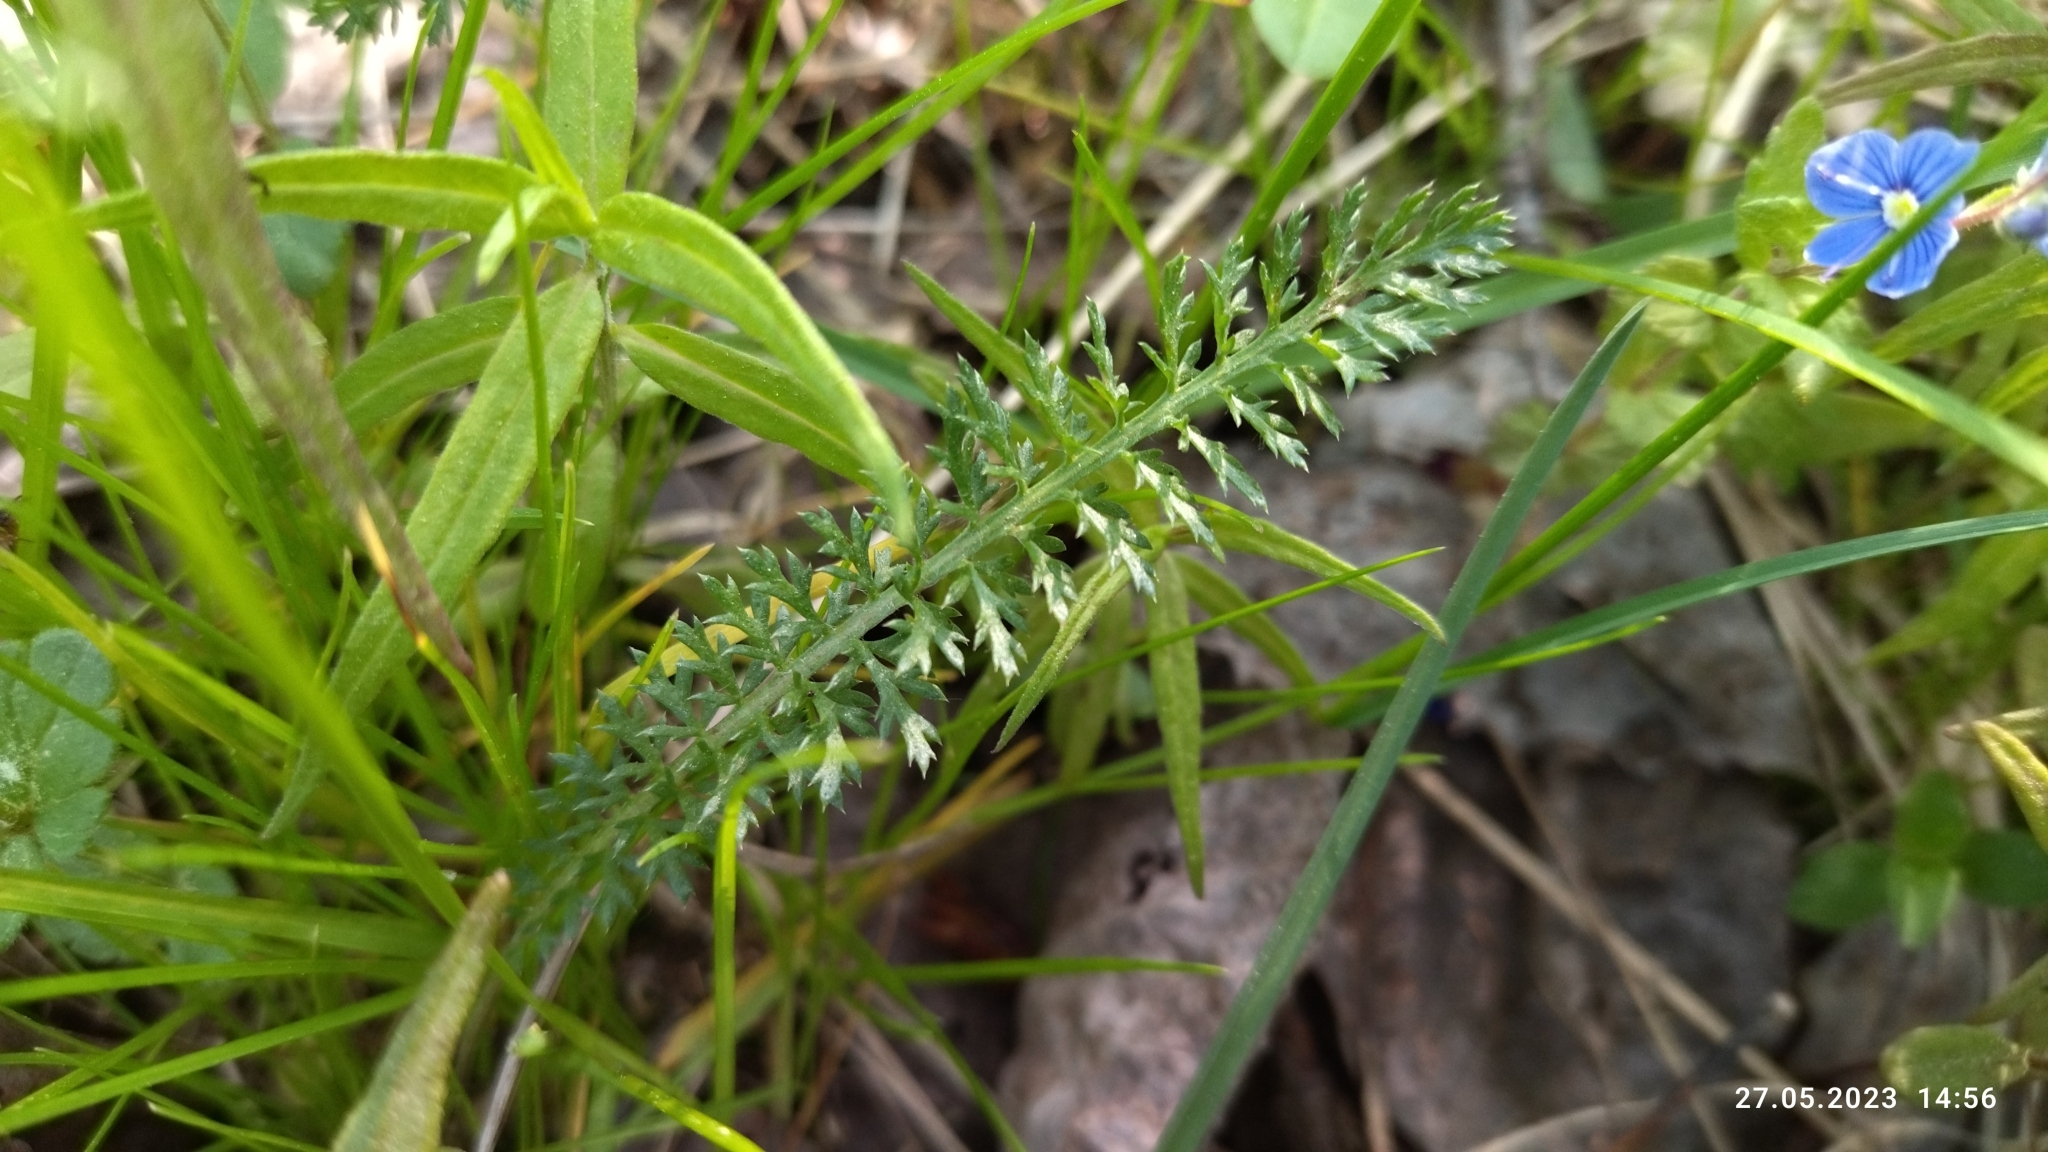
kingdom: Plantae
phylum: Tracheophyta
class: Magnoliopsida
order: Asterales
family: Asteraceae
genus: Achillea
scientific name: Achillea millefolium
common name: Yarrow
